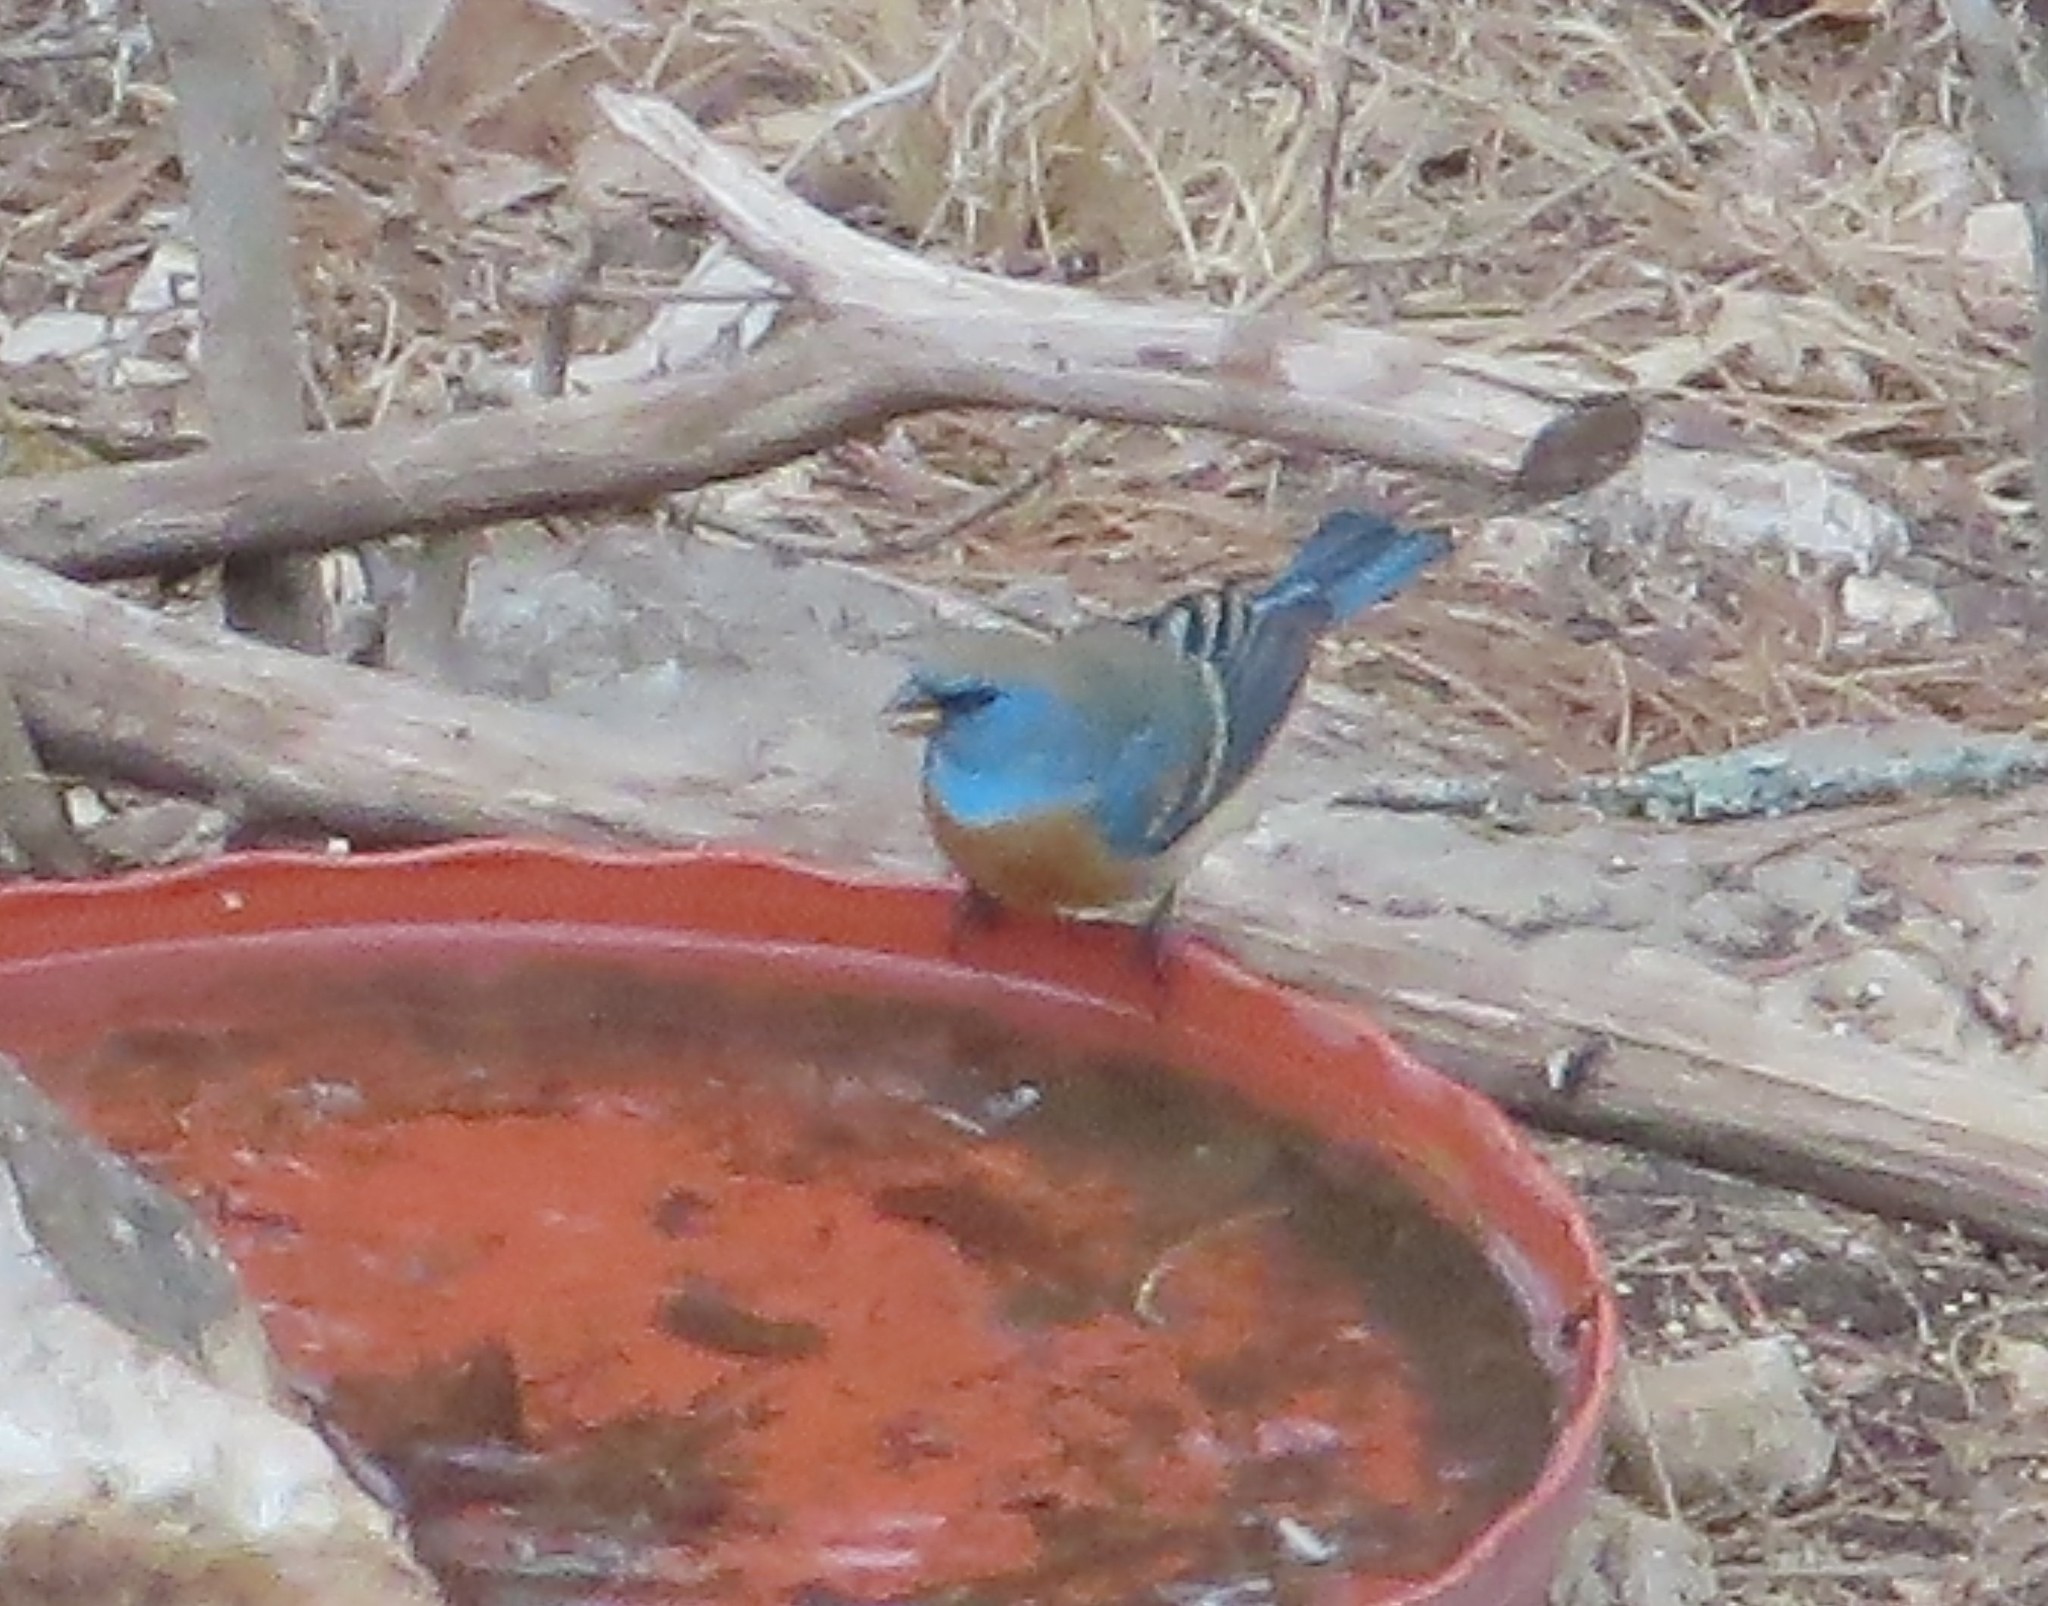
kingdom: Animalia
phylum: Chordata
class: Aves
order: Passeriformes
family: Cardinalidae
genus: Passerina
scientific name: Passerina amoena
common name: Lazuli bunting
